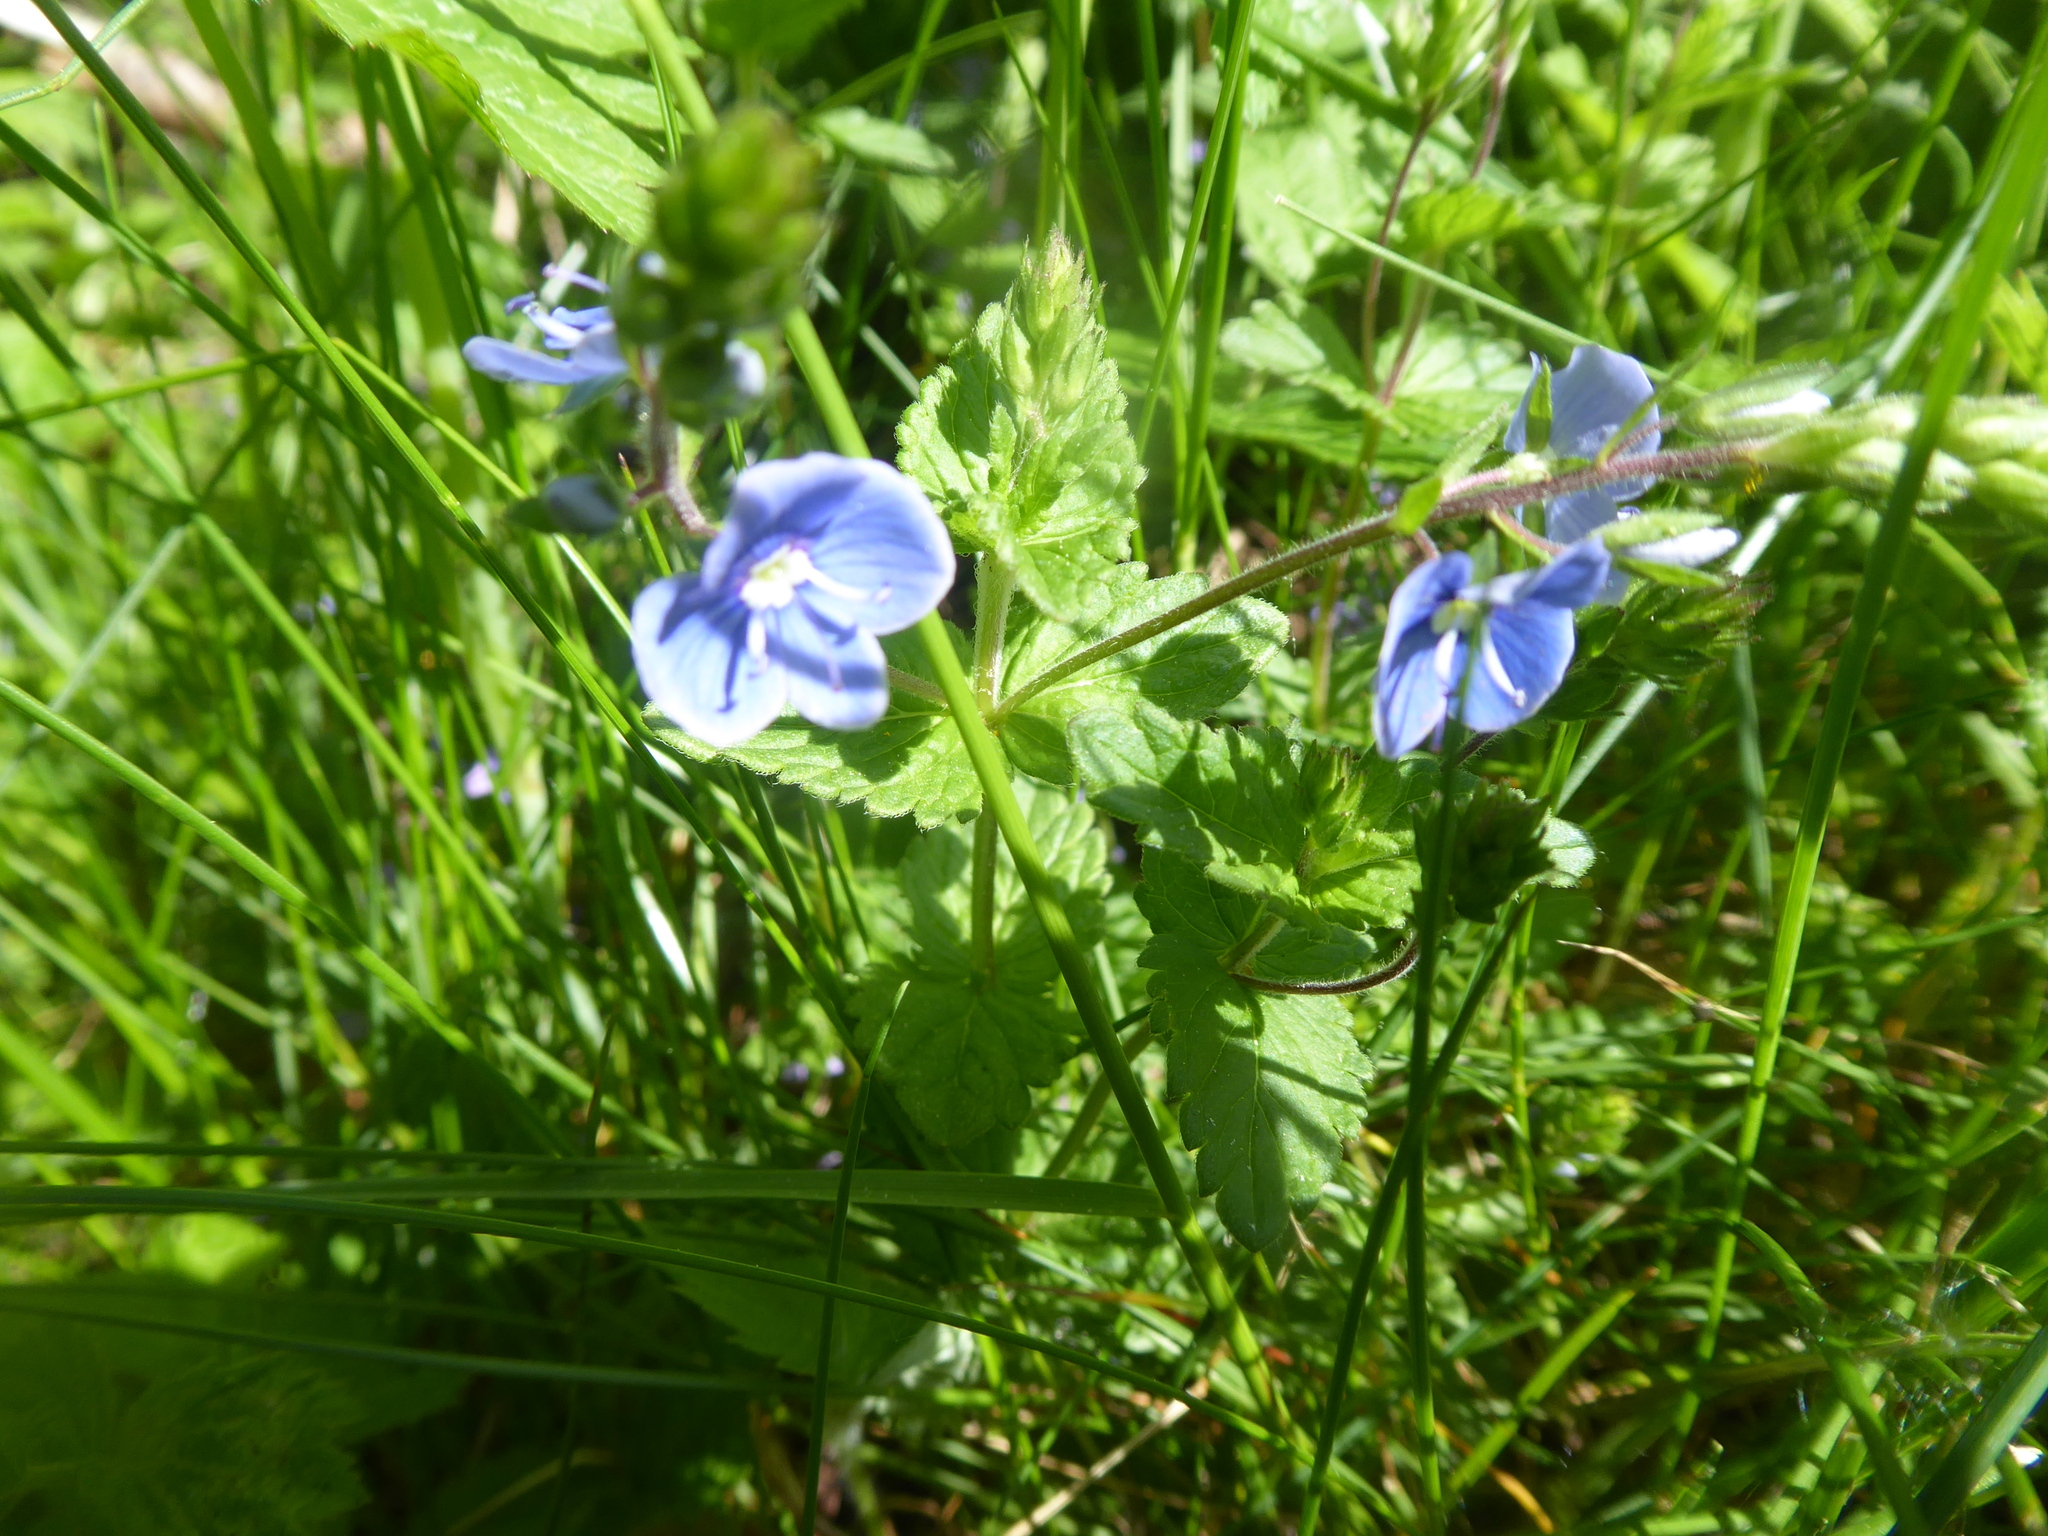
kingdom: Plantae
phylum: Tracheophyta
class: Magnoliopsida
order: Lamiales
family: Plantaginaceae
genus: Veronica
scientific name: Veronica chamaedrys
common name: Germander speedwell
